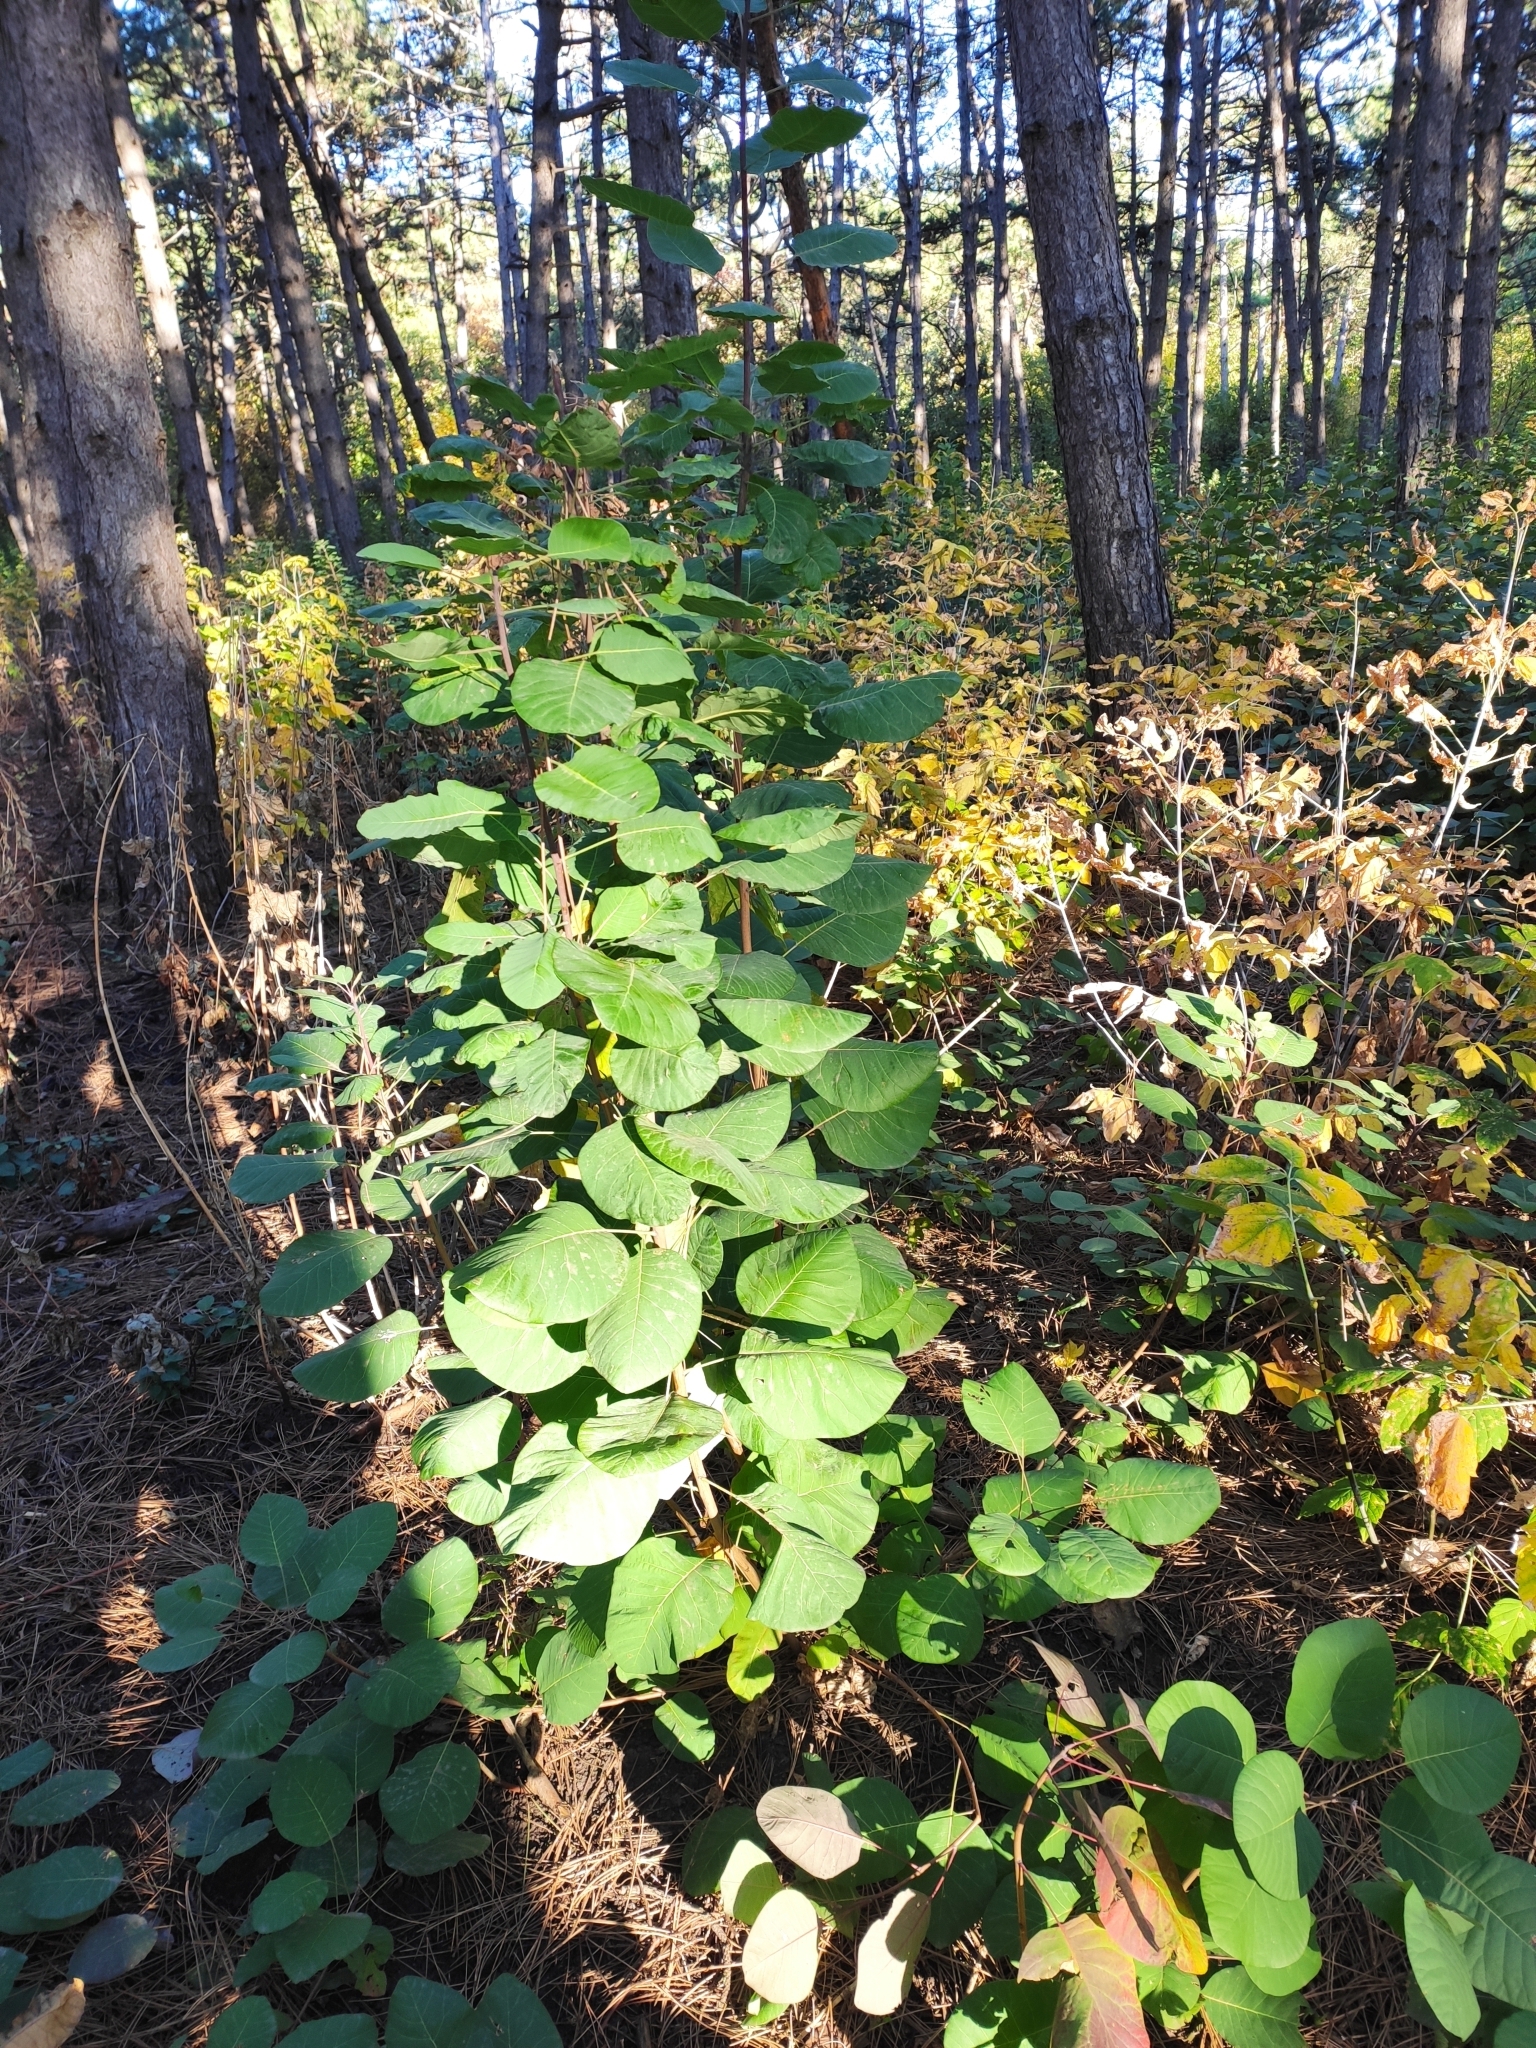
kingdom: Plantae
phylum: Tracheophyta
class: Magnoliopsida
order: Sapindales
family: Anacardiaceae
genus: Cotinus
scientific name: Cotinus coggygria
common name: Smoke-tree
